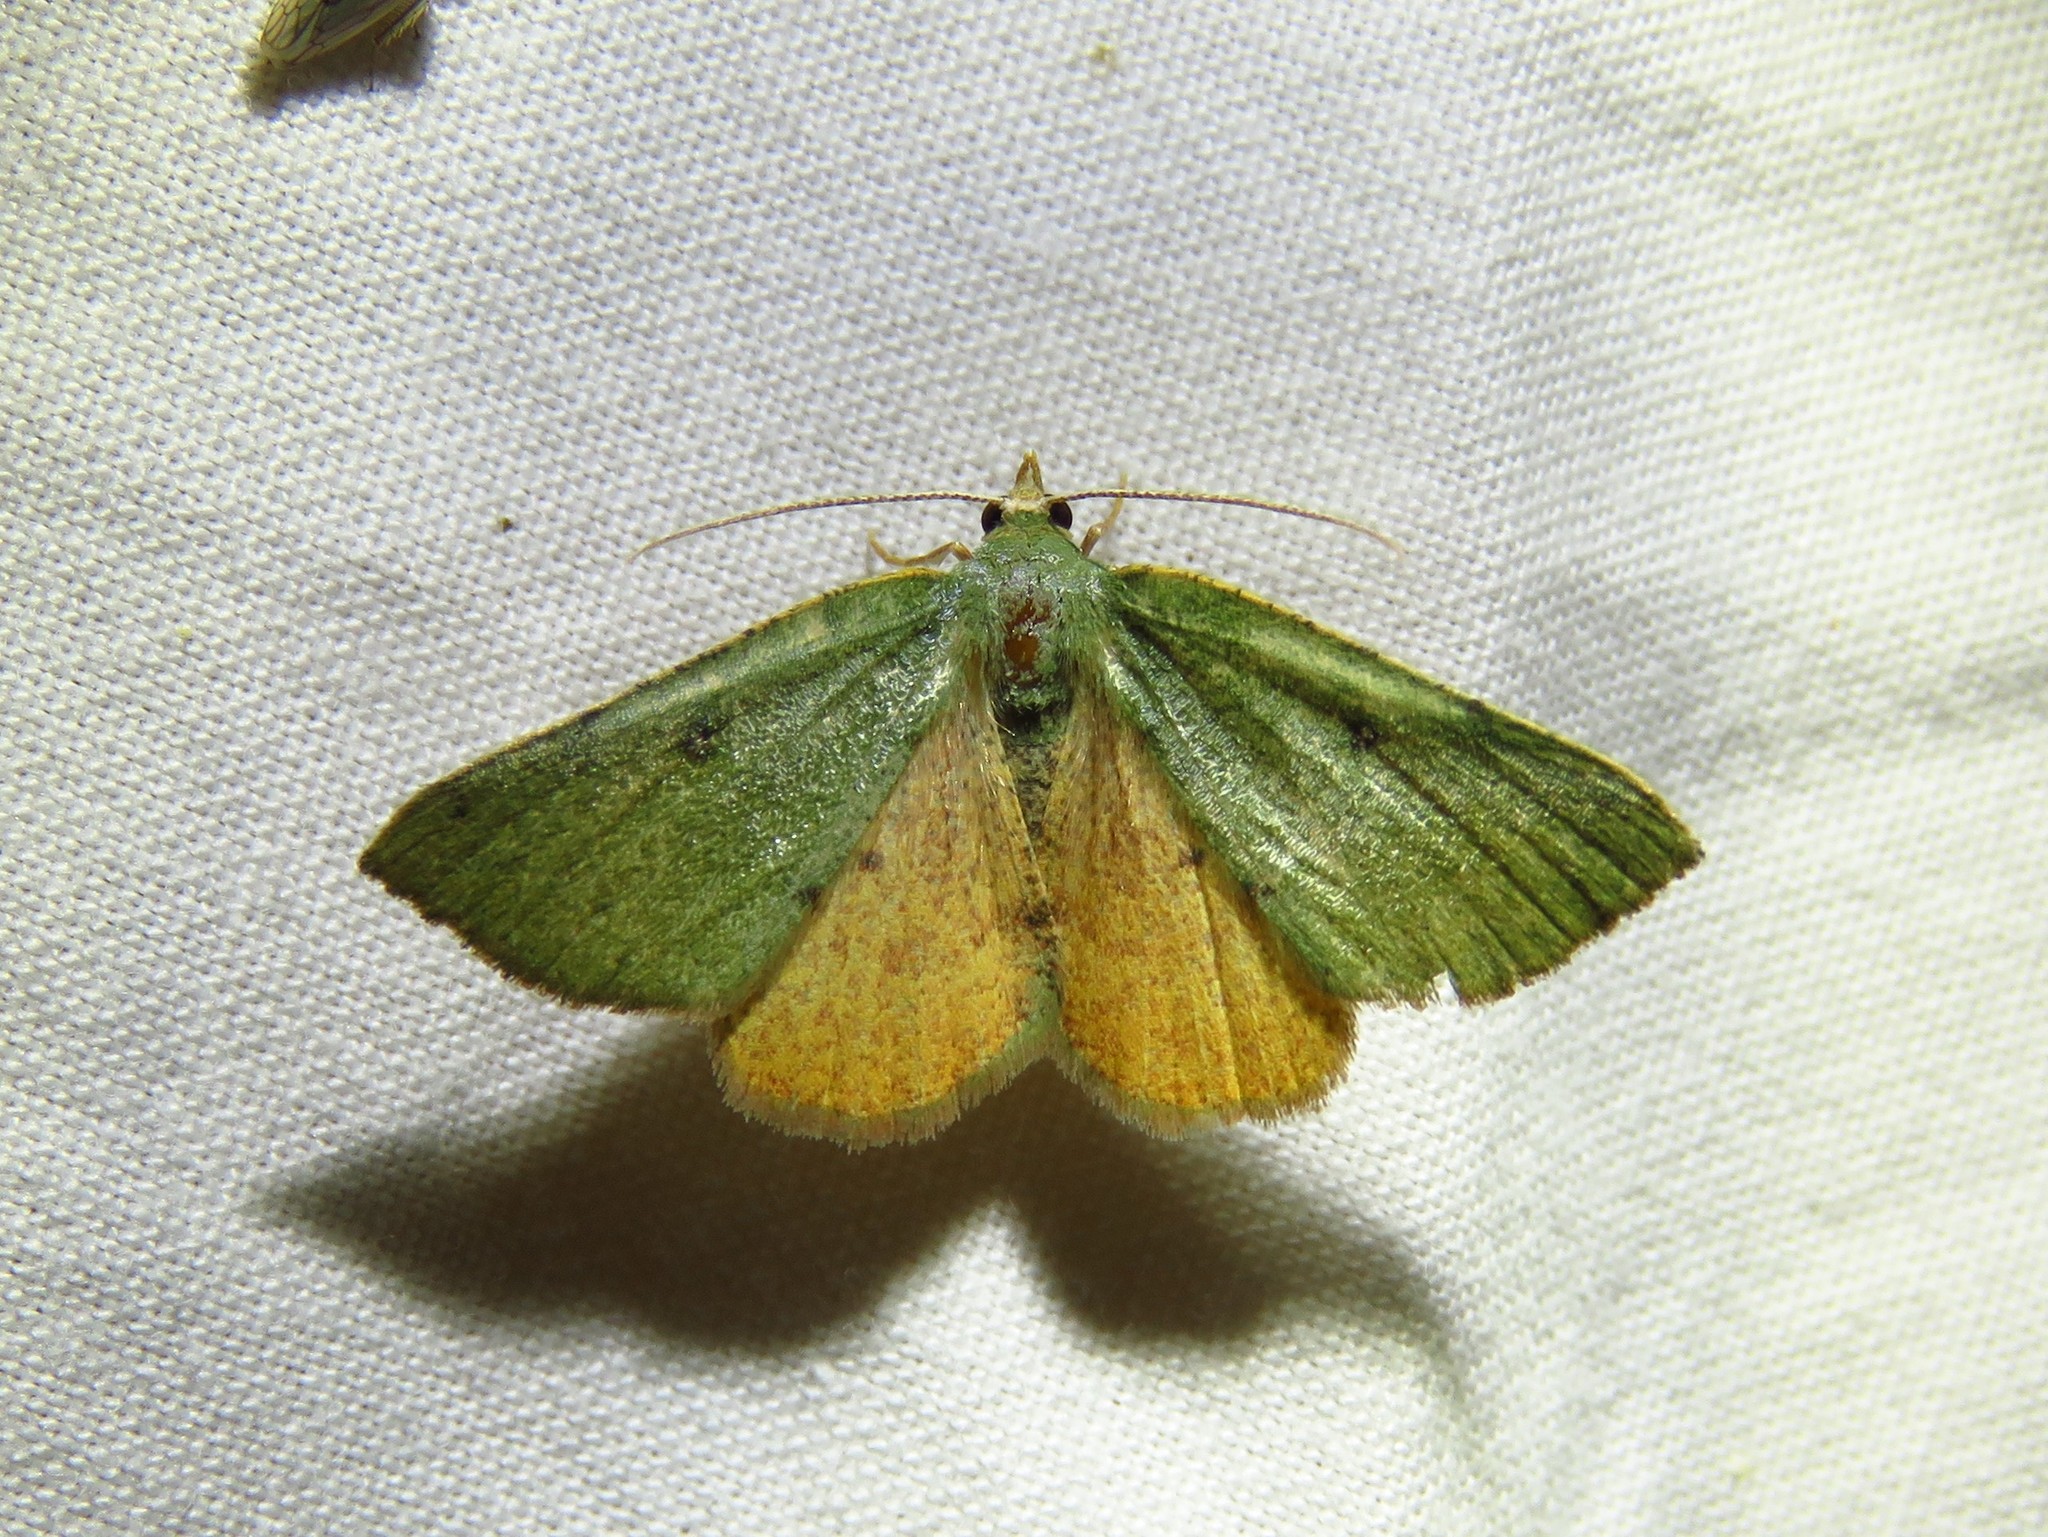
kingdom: Animalia
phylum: Arthropoda
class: Insecta
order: Lepidoptera
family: Geometridae
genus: Chloraspilates
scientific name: Chloraspilates bicoloraria
